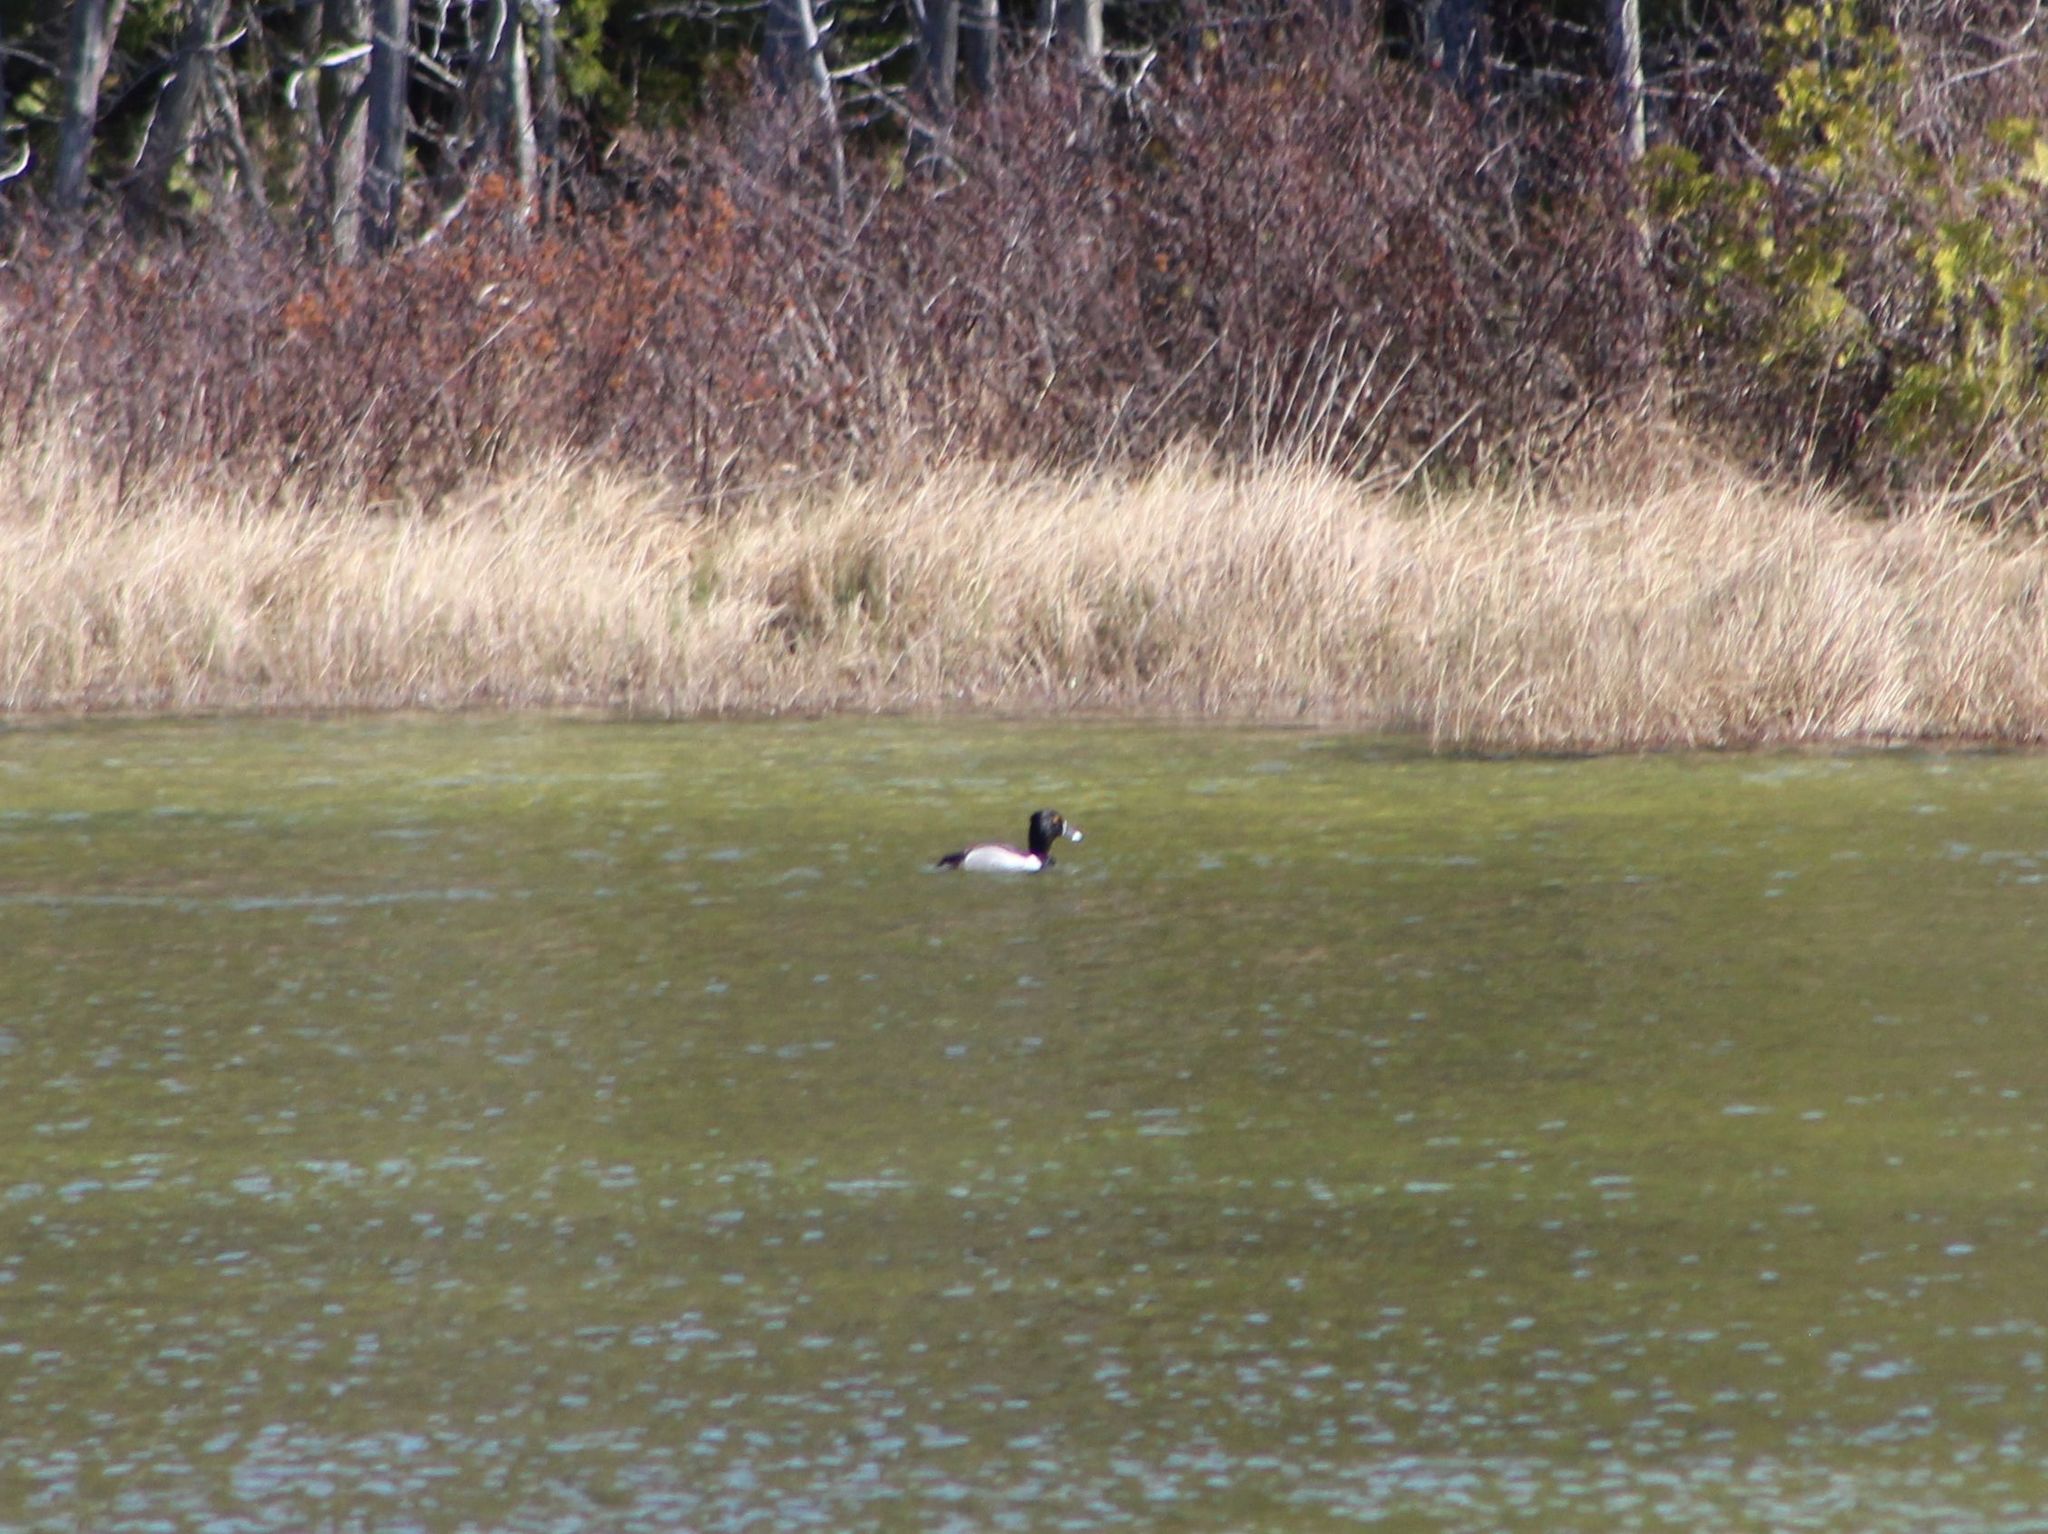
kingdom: Animalia
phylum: Chordata
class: Aves
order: Anseriformes
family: Anatidae
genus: Aythya
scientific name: Aythya collaris
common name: Ring-necked duck
